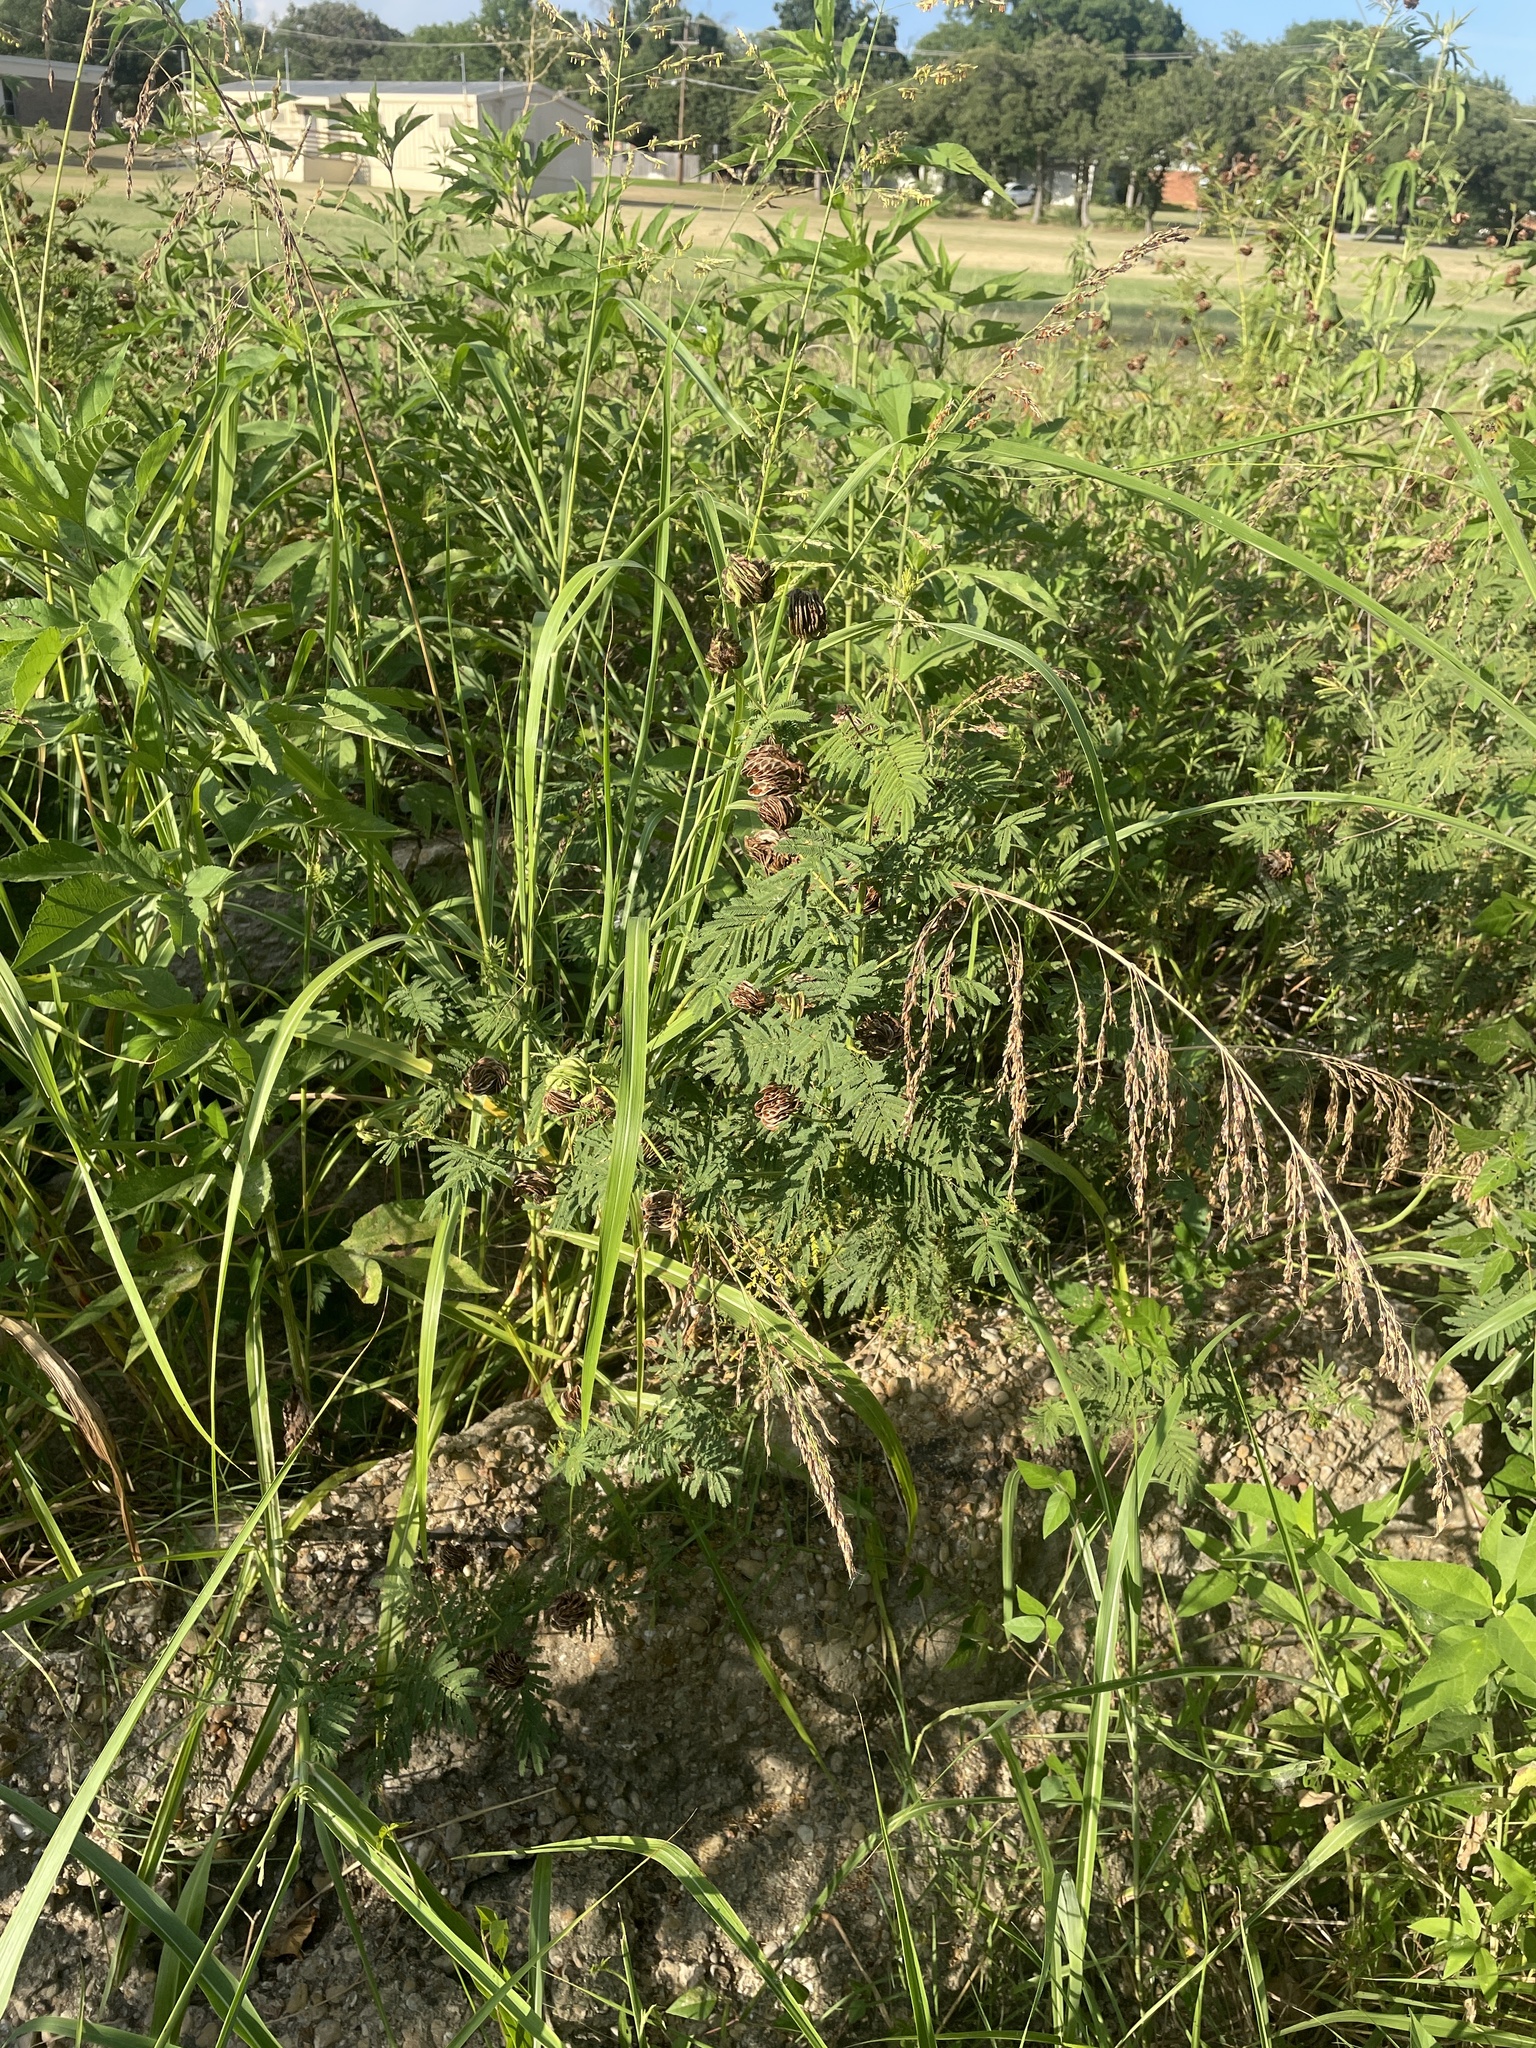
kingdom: Plantae
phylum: Tracheophyta
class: Magnoliopsida
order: Fabales
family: Fabaceae
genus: Desmanthus
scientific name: Desmanthus illinoensis
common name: Illinois bundle-flower
